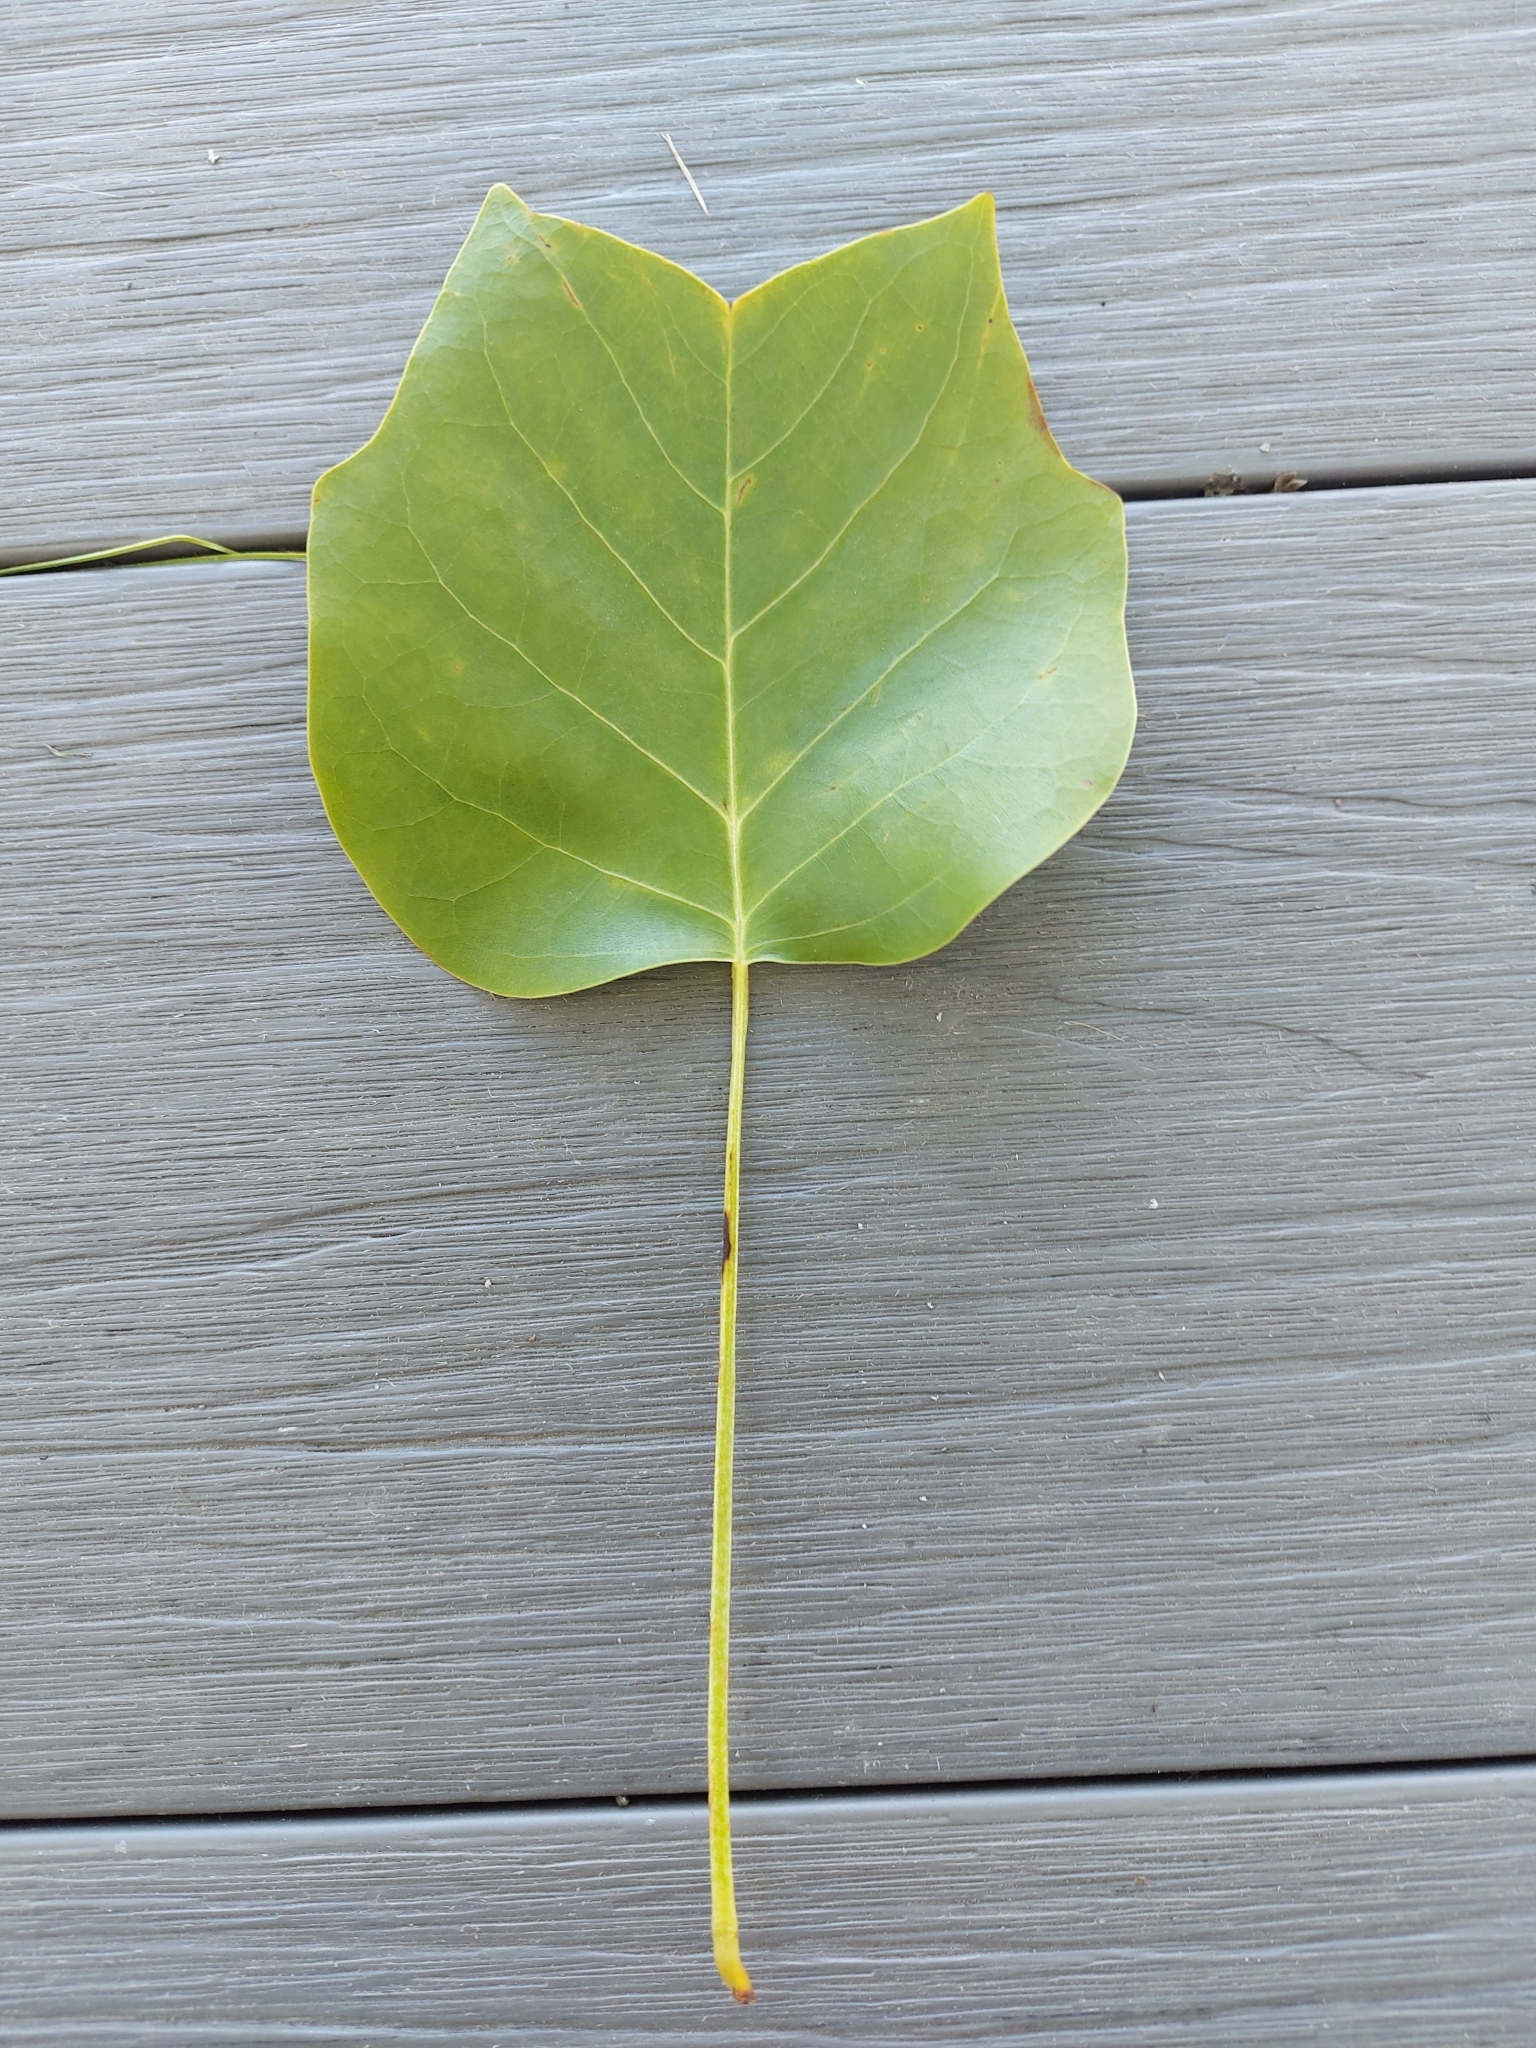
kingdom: Plantae
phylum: Tracheophyta
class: Magnoliopsida
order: Magnoliales
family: Magnoliaceae
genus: Liriodendron
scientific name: Liriodendron tulipifera
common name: Tulip tree
